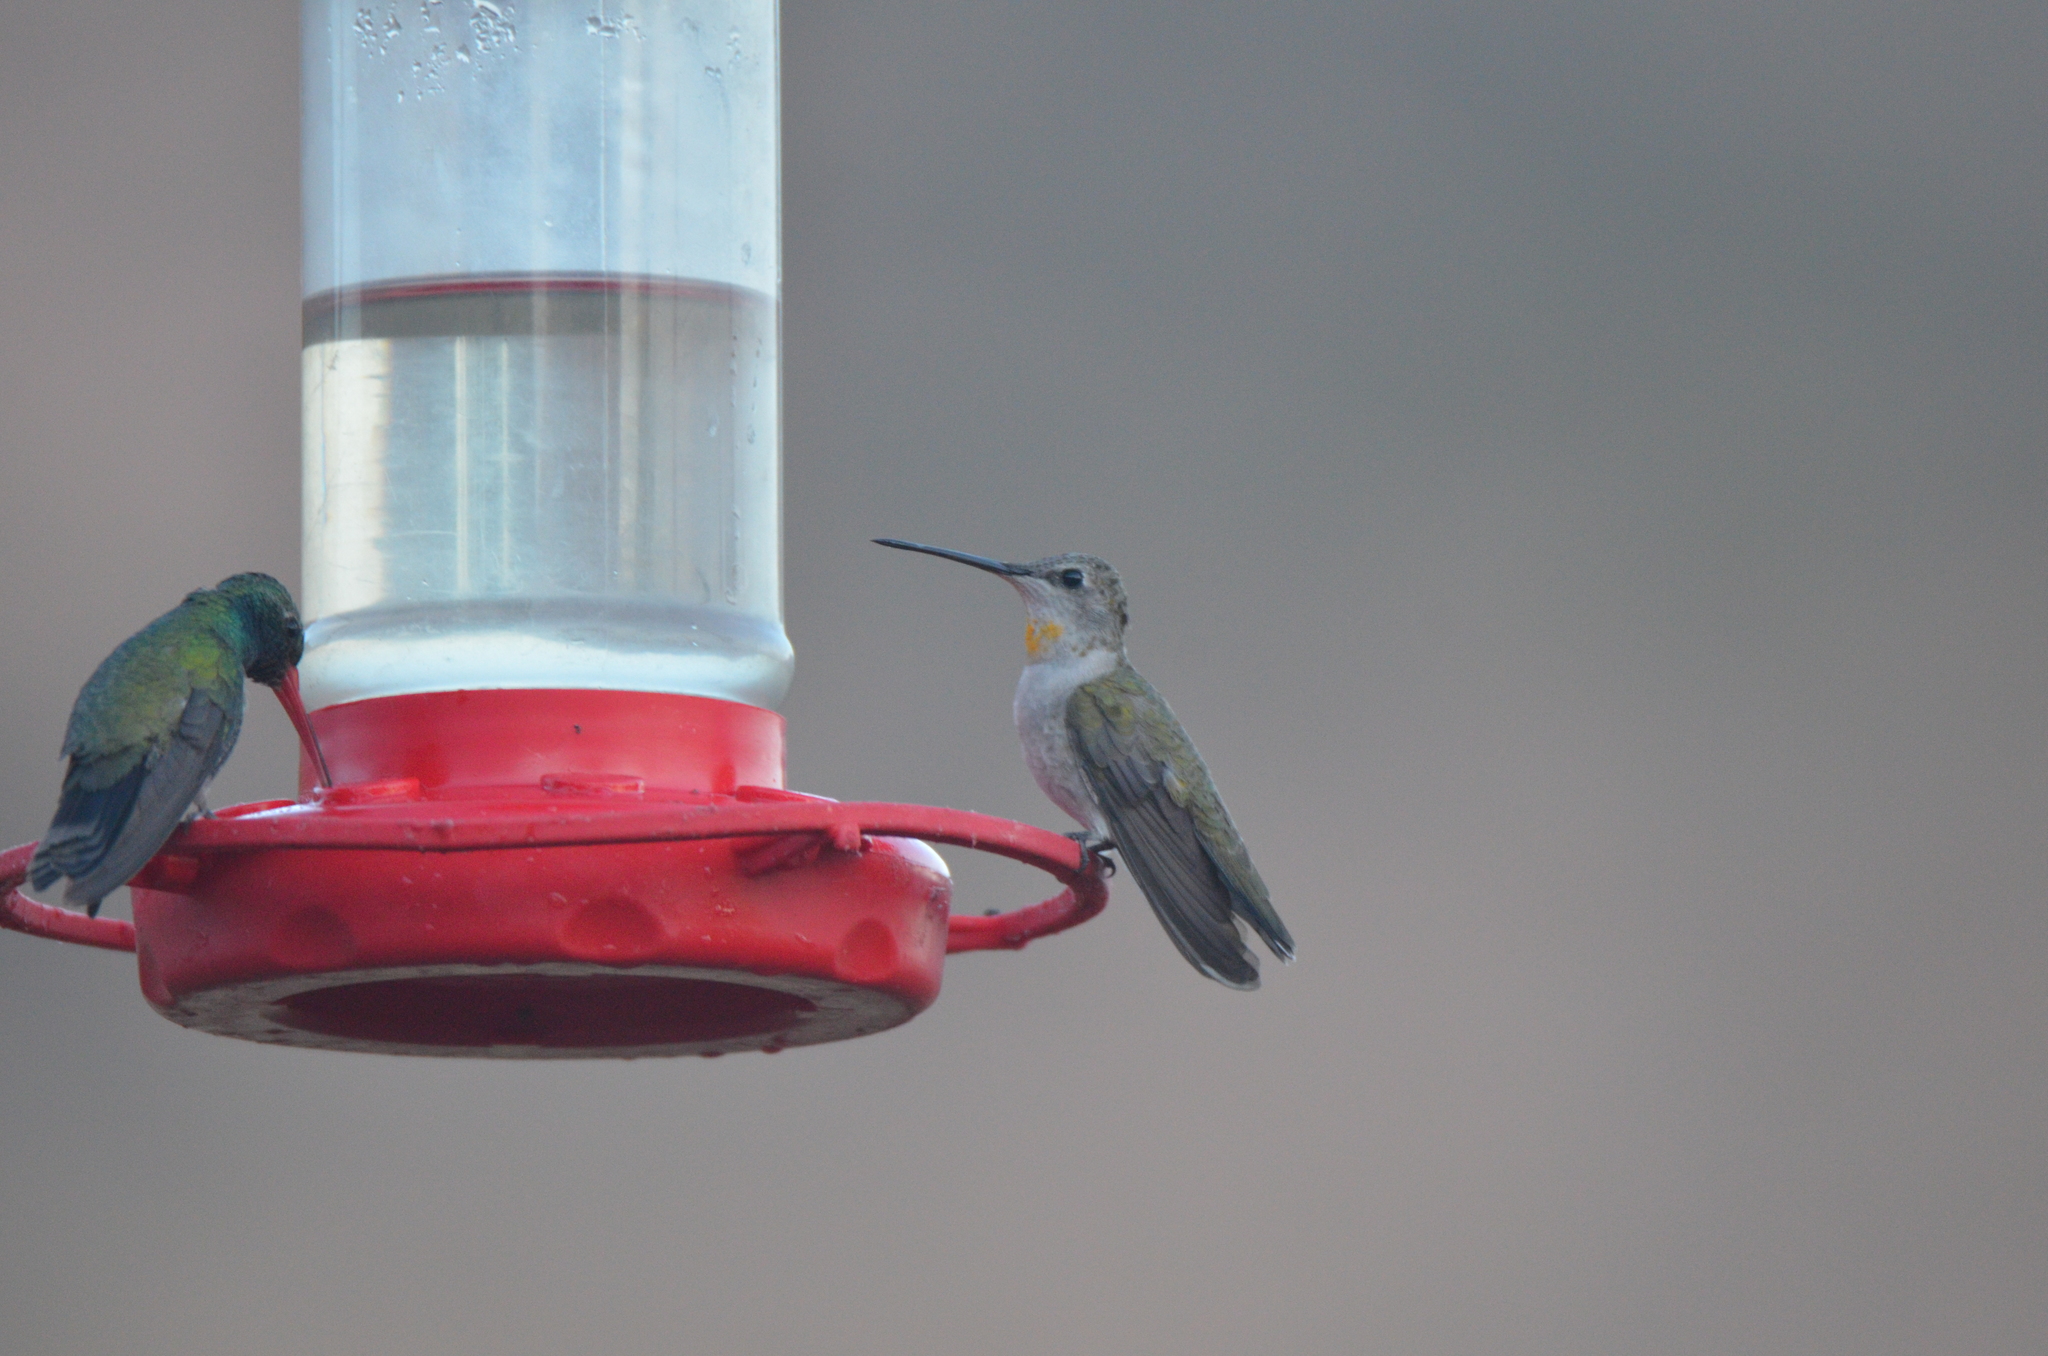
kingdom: Animalia
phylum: Chordata
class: Aves
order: Apodiformes
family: Trochilidae
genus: Archilochus
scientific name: Archilochus alexandri
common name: Black-chinned hummingbird
